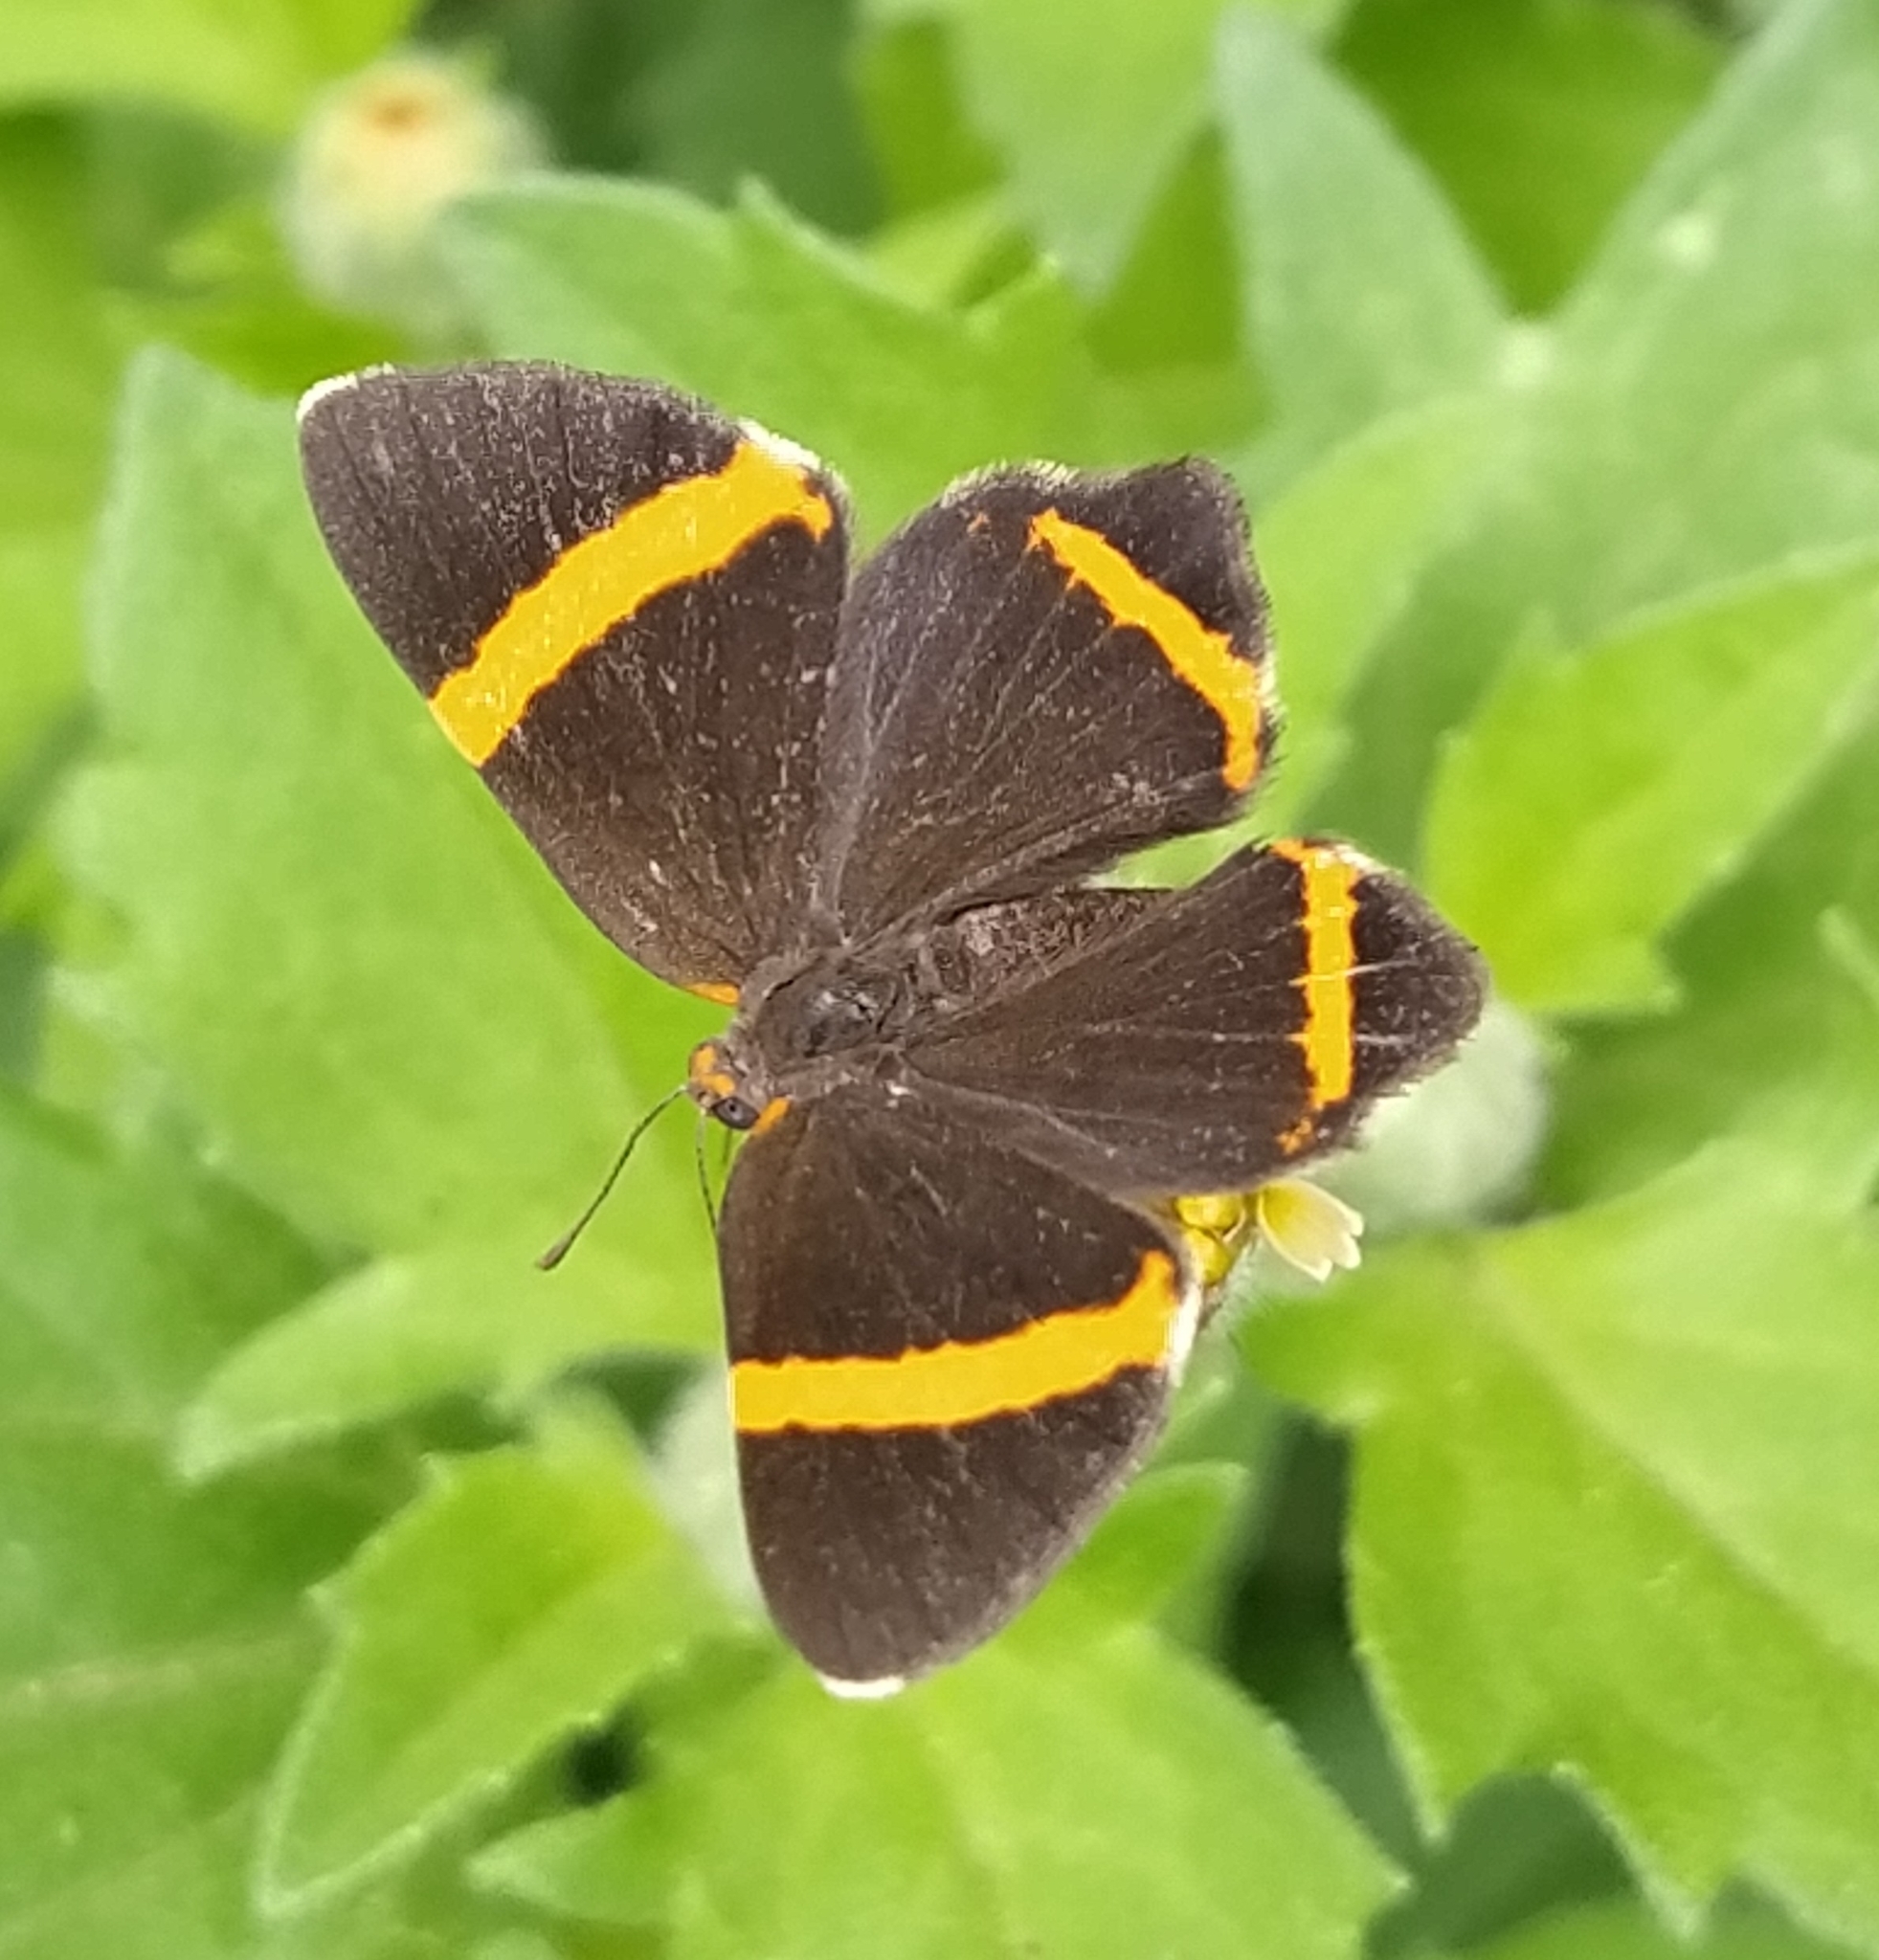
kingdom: Animalia
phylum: Arthropoda
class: Insecta
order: Lepidoptera
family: Riodinidae
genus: Riodina
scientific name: Riodina lysippoides
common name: Little dancer metalmark
